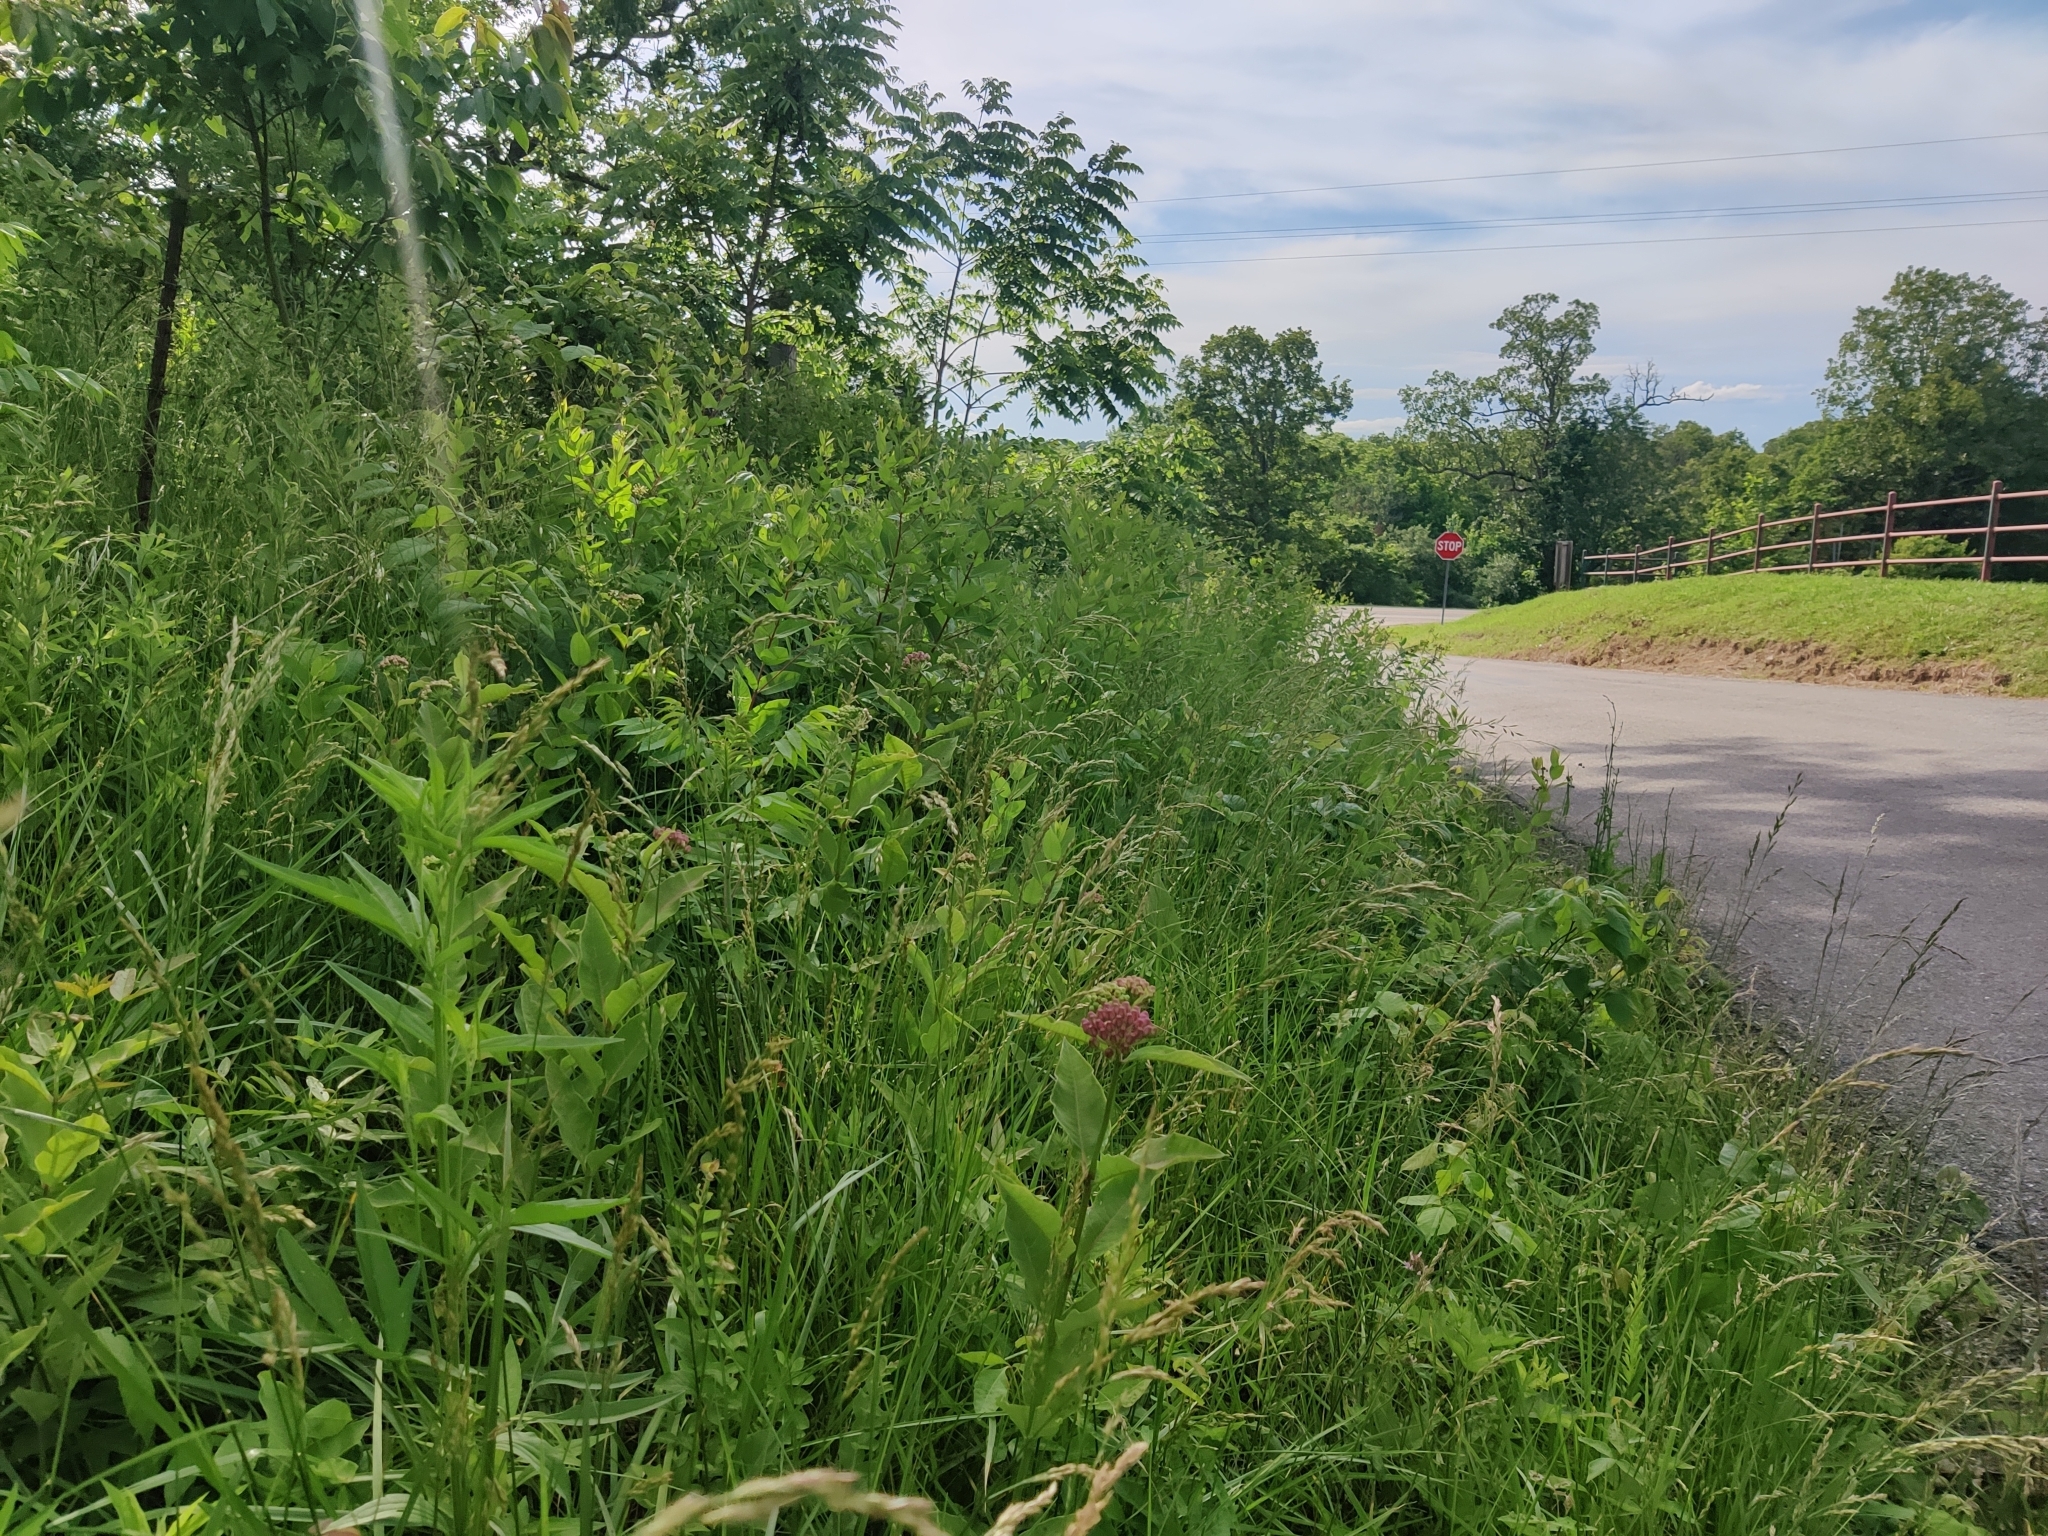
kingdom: Plantae
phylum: Tracheophyta
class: Magnoliopsida
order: Gentianales
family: Apocynaceae
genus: Asclepias
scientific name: Asclepias purpurascens
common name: Purple milkweed
